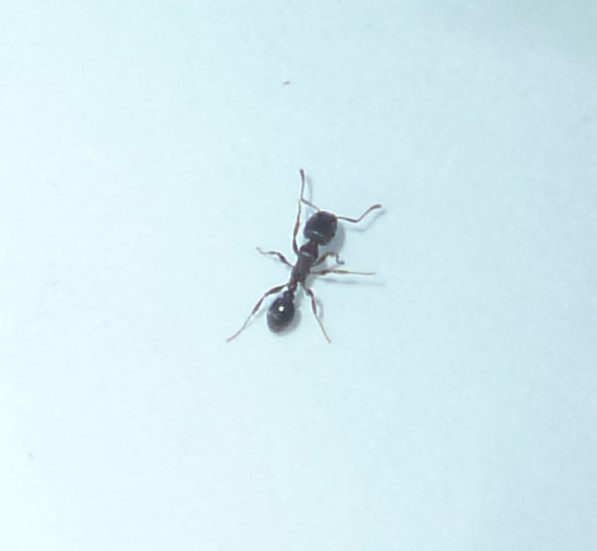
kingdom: Animalia
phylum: Arthropoda
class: Insecta
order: Hymenoptera
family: Formicidae
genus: Tetramorium
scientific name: Tetramorium immigrans
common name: Pavement ant
